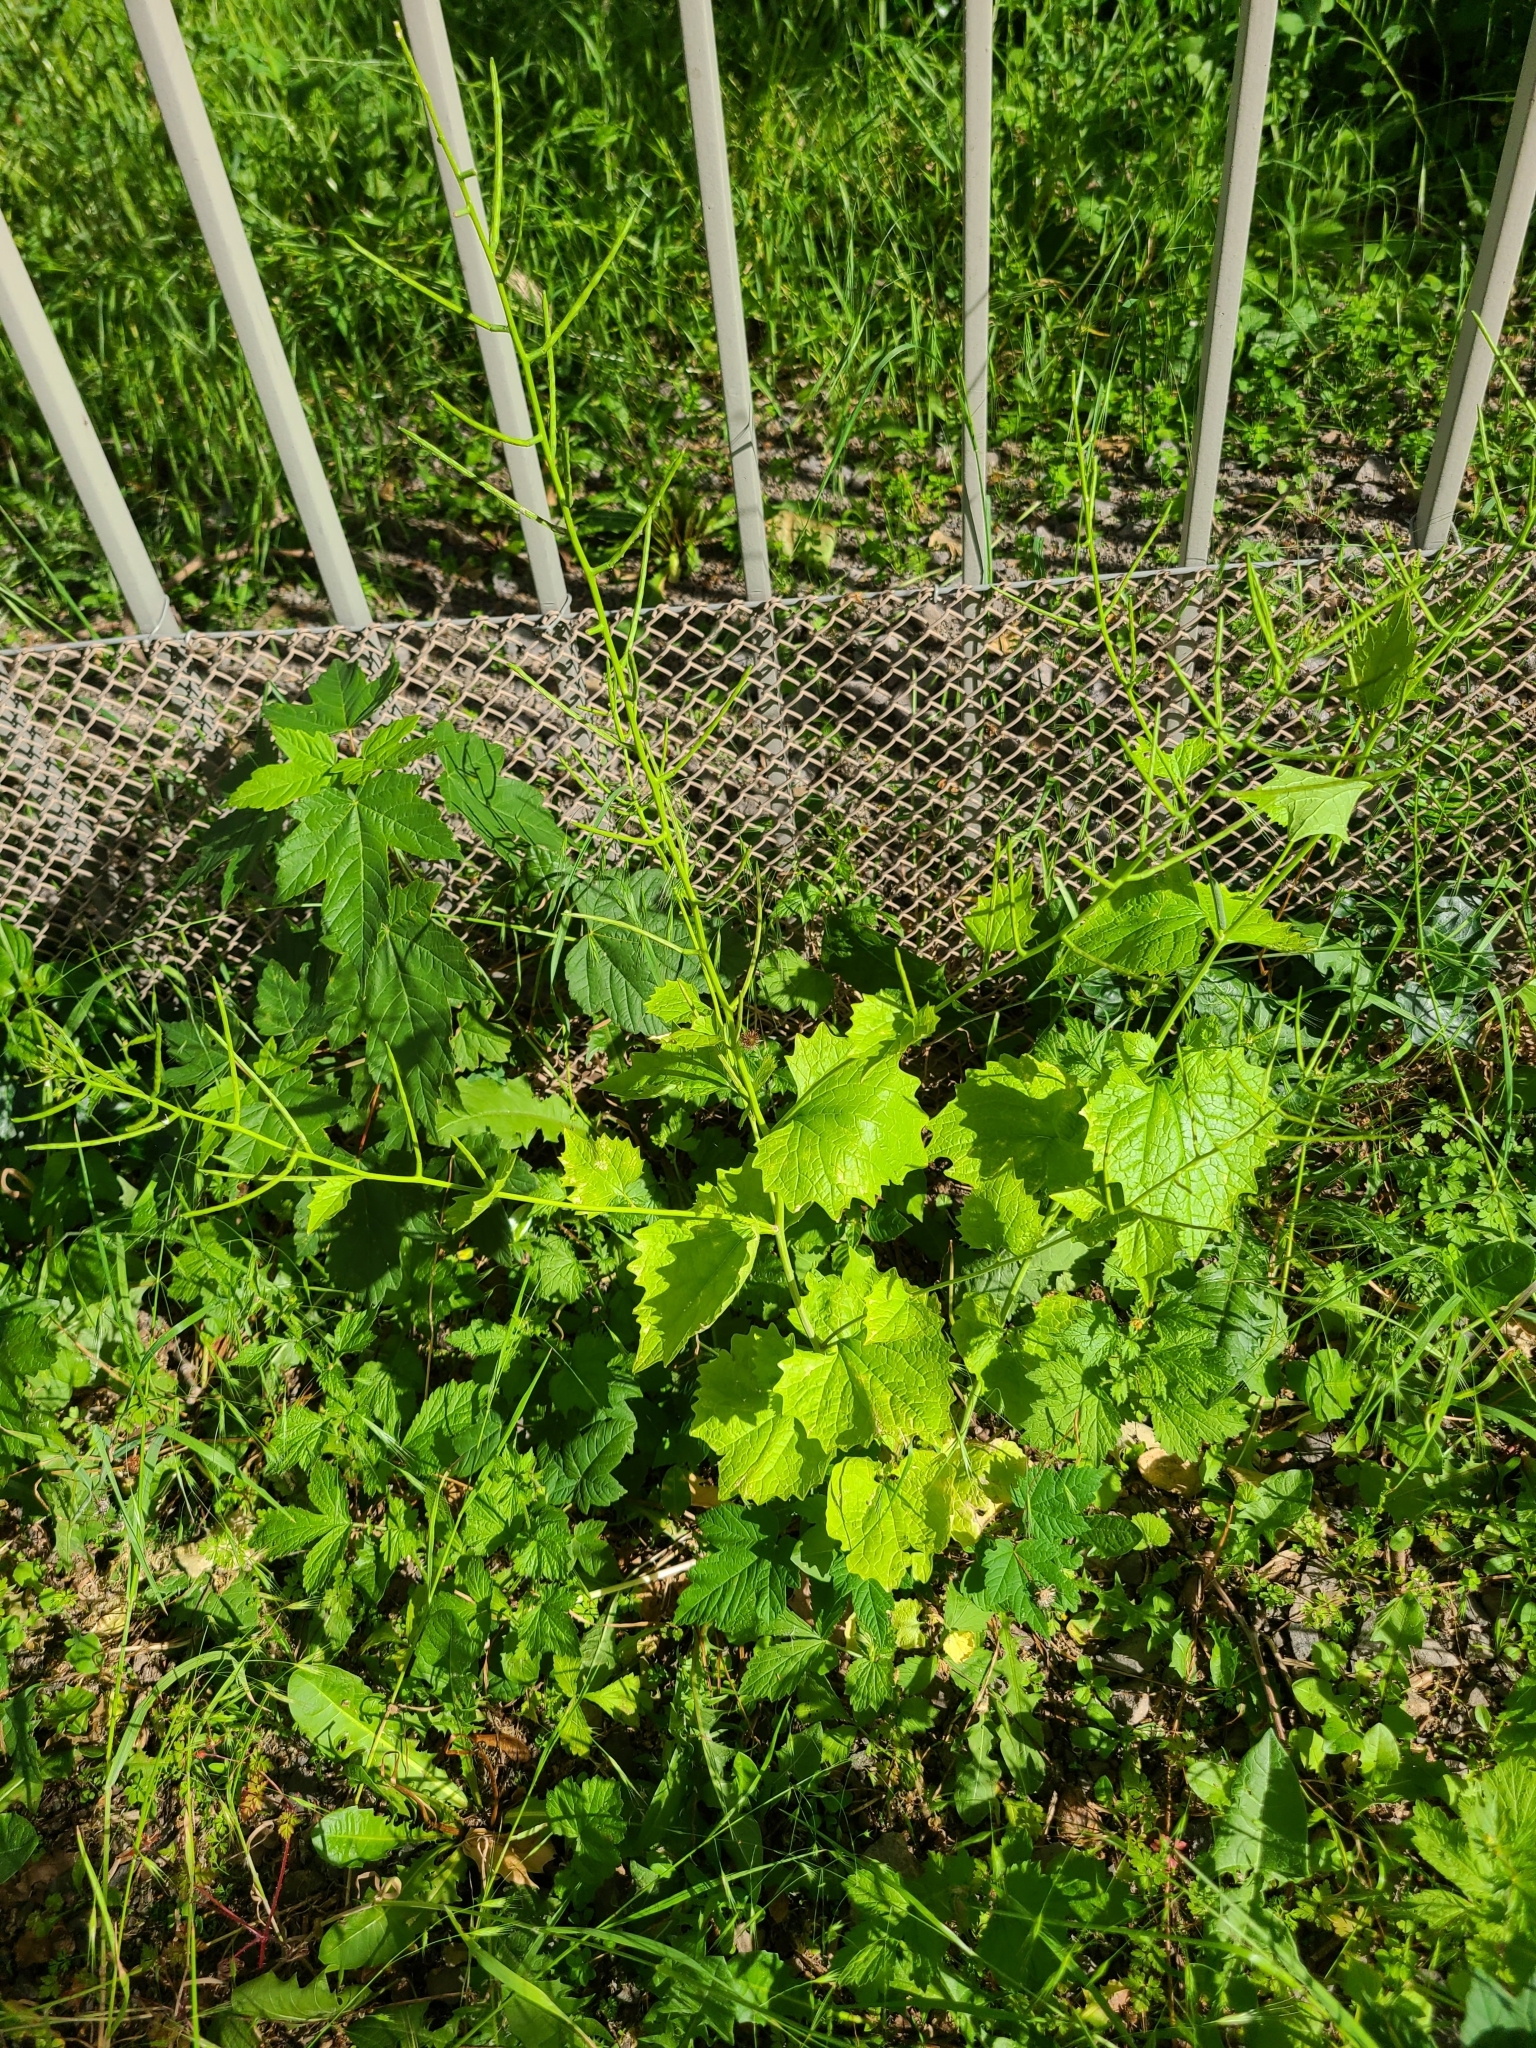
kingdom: Plantae
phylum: Tracheophyta
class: Magnoliopsida
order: Brassicales
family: Brassicaceae
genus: Alliaria
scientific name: Alliaria petiolata
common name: Garlic mustard
